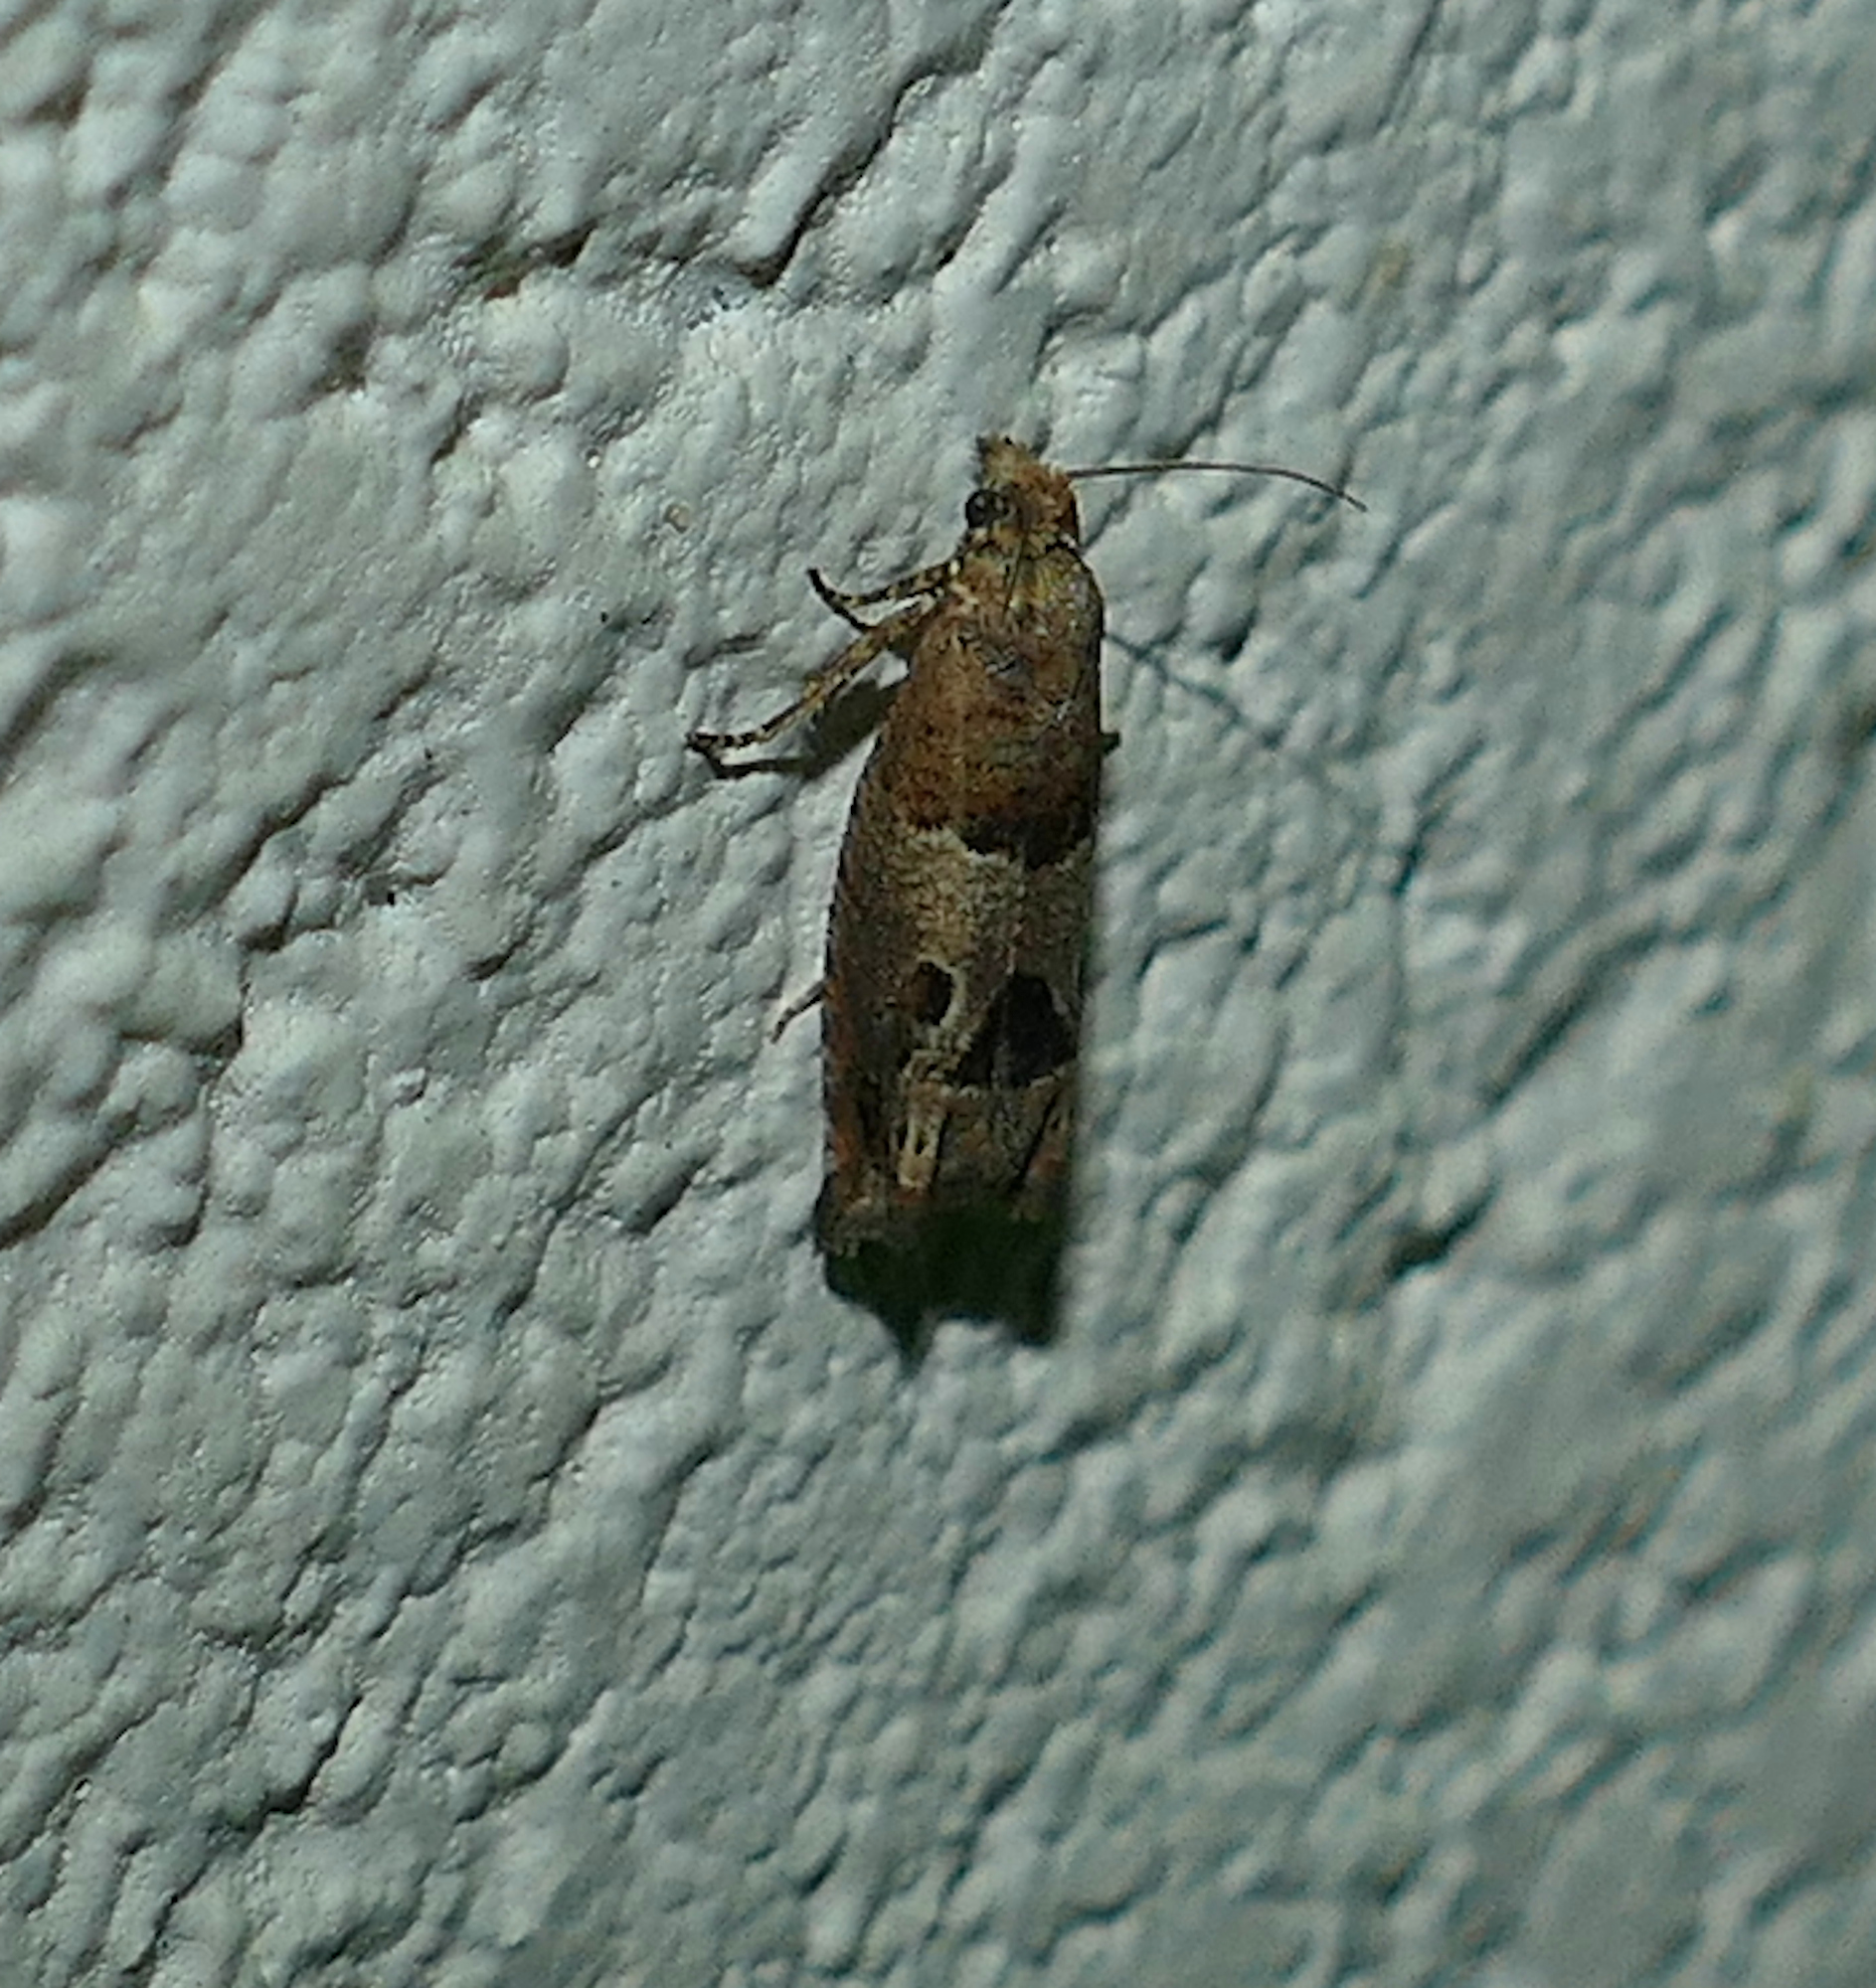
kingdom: Animalia
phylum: Arthropoda
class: Insecta
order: Lepidoptera
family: Tortricidae
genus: Sonia
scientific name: Sonia constrictana
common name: Constricted sonia moth
